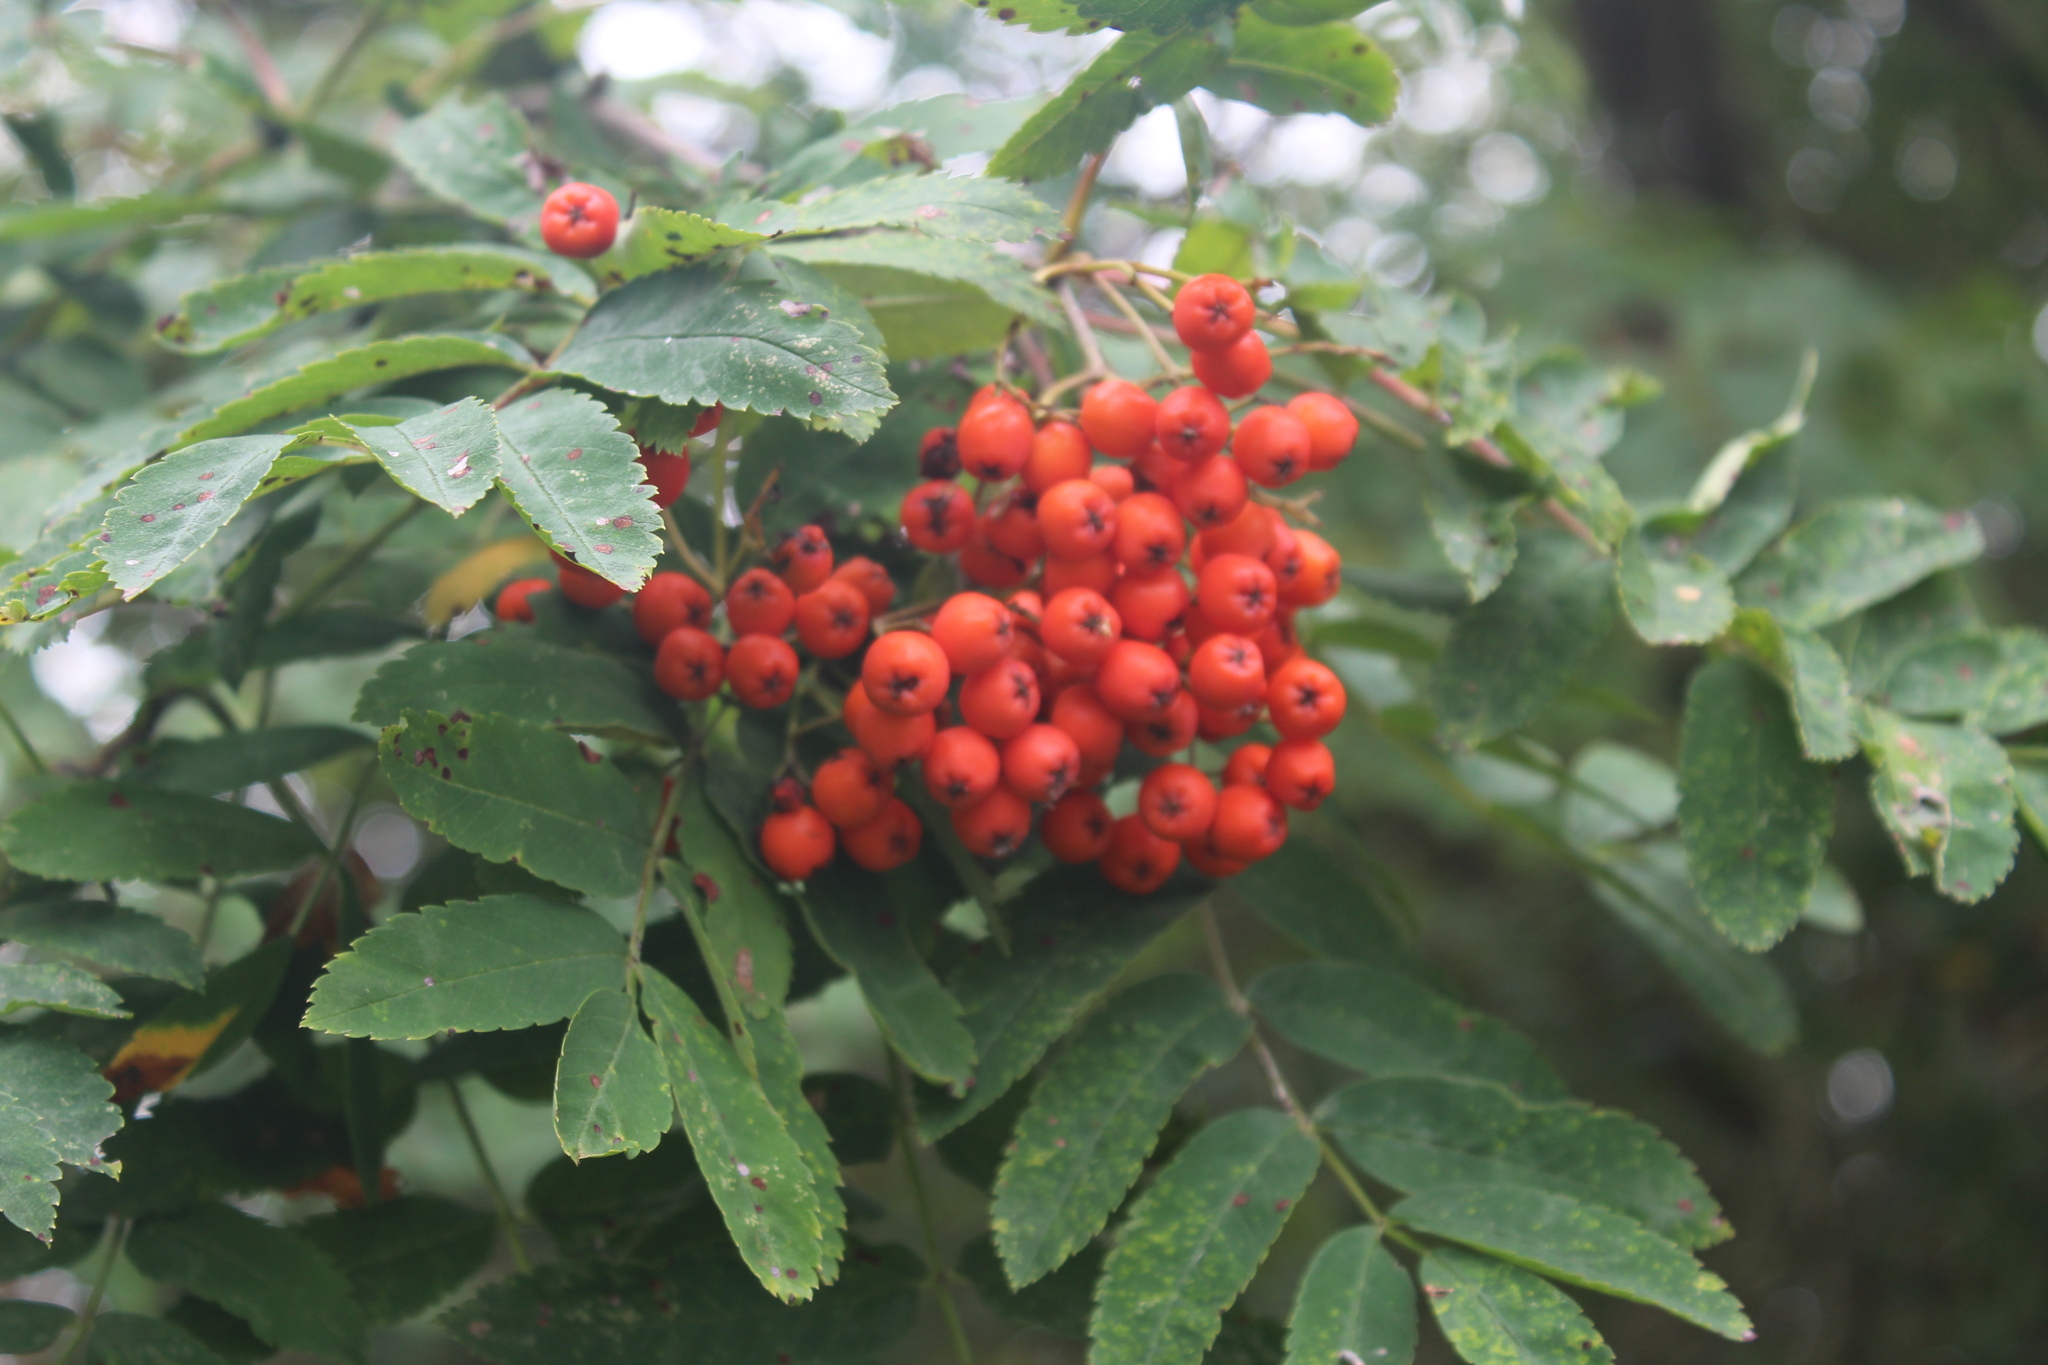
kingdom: Plantae
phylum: Tracheophyta
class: Magnoliopsida
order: Rosales
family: Rosaceae
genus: Sorbus
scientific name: Sorbus aucuparia
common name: Rowan
